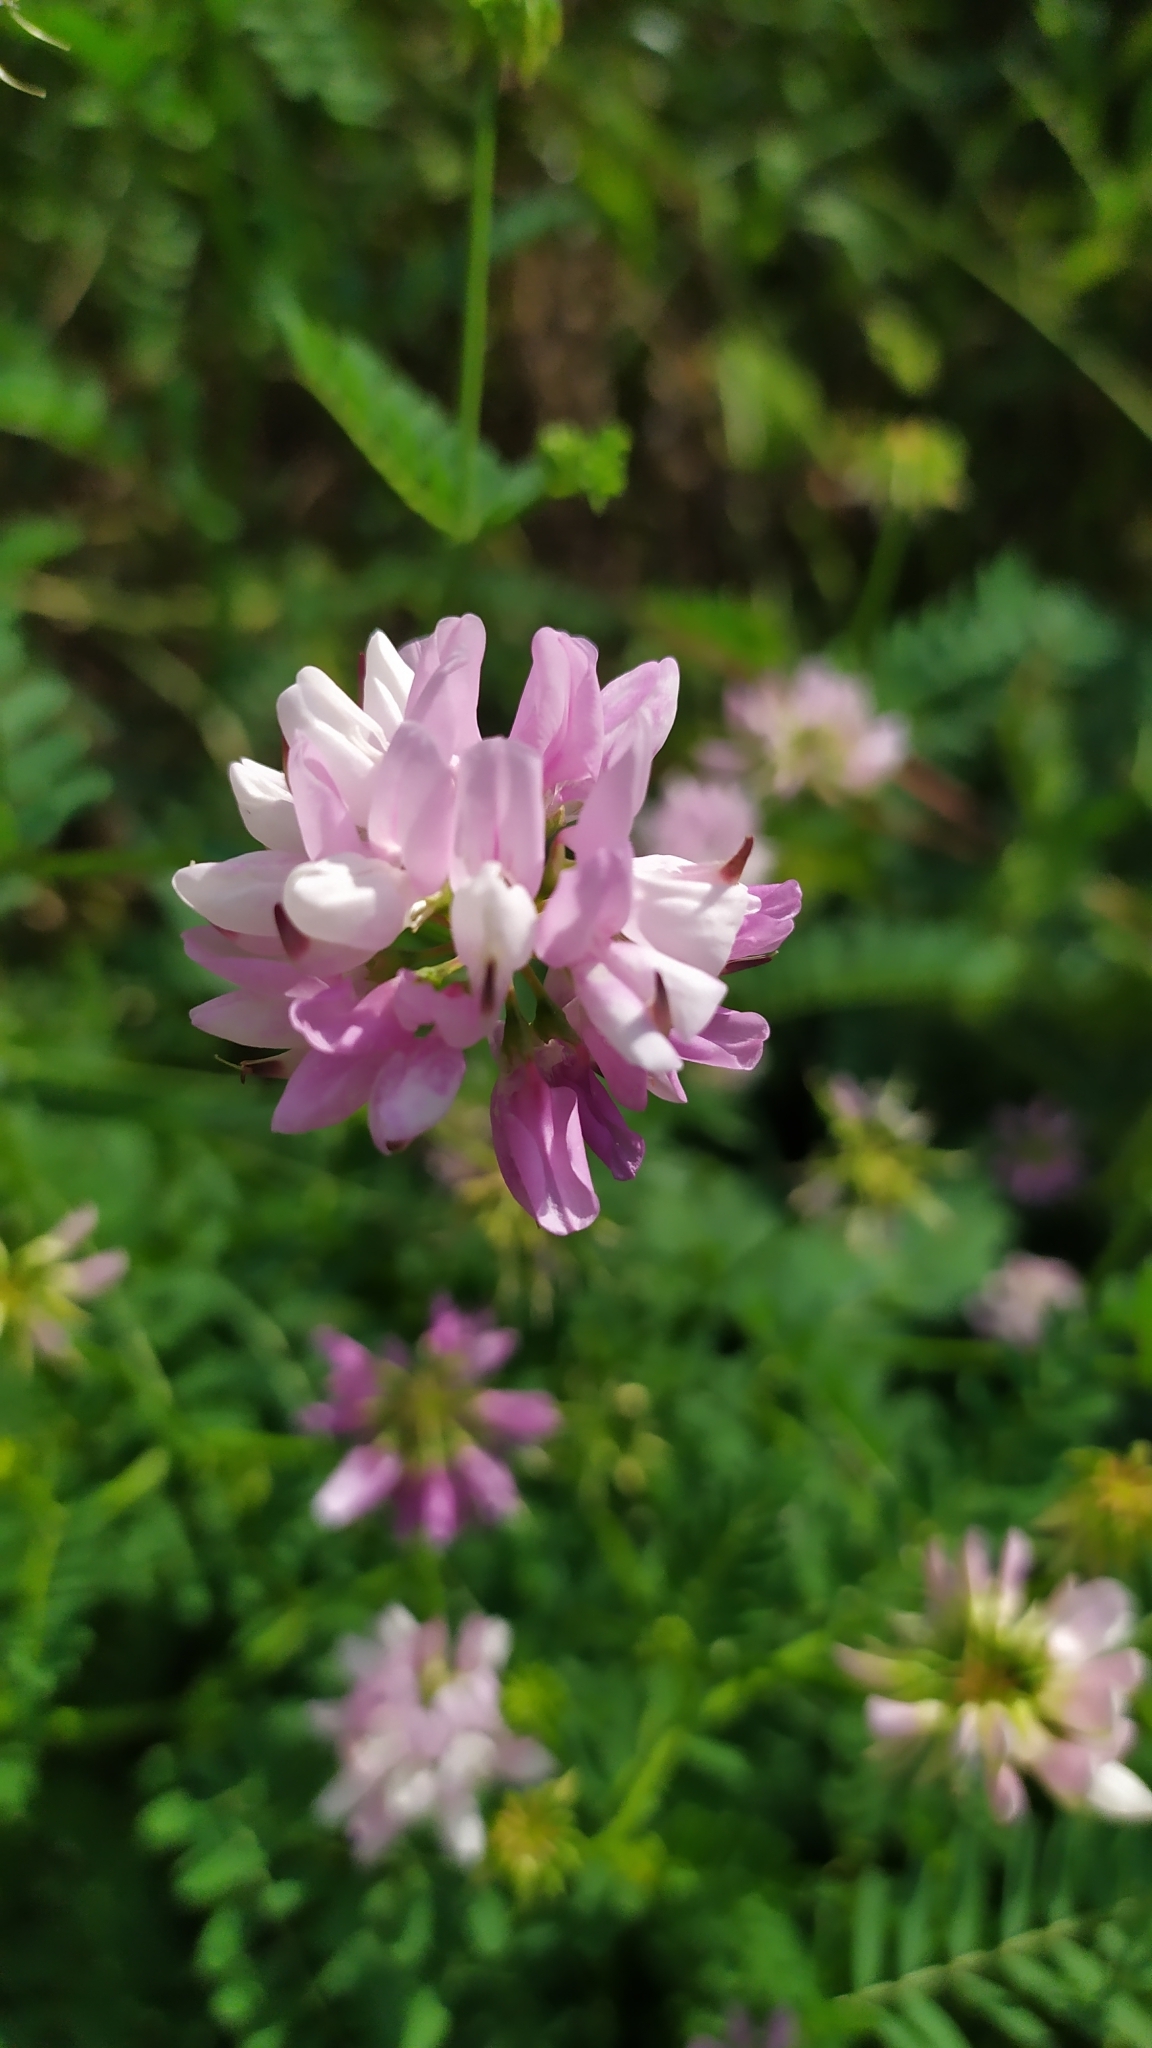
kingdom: Plantae
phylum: Tracheophyta
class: Magnoliopsida
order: Fabales
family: Fabaceae
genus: Coronilla
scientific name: Coronilla varia
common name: Crownvetch
